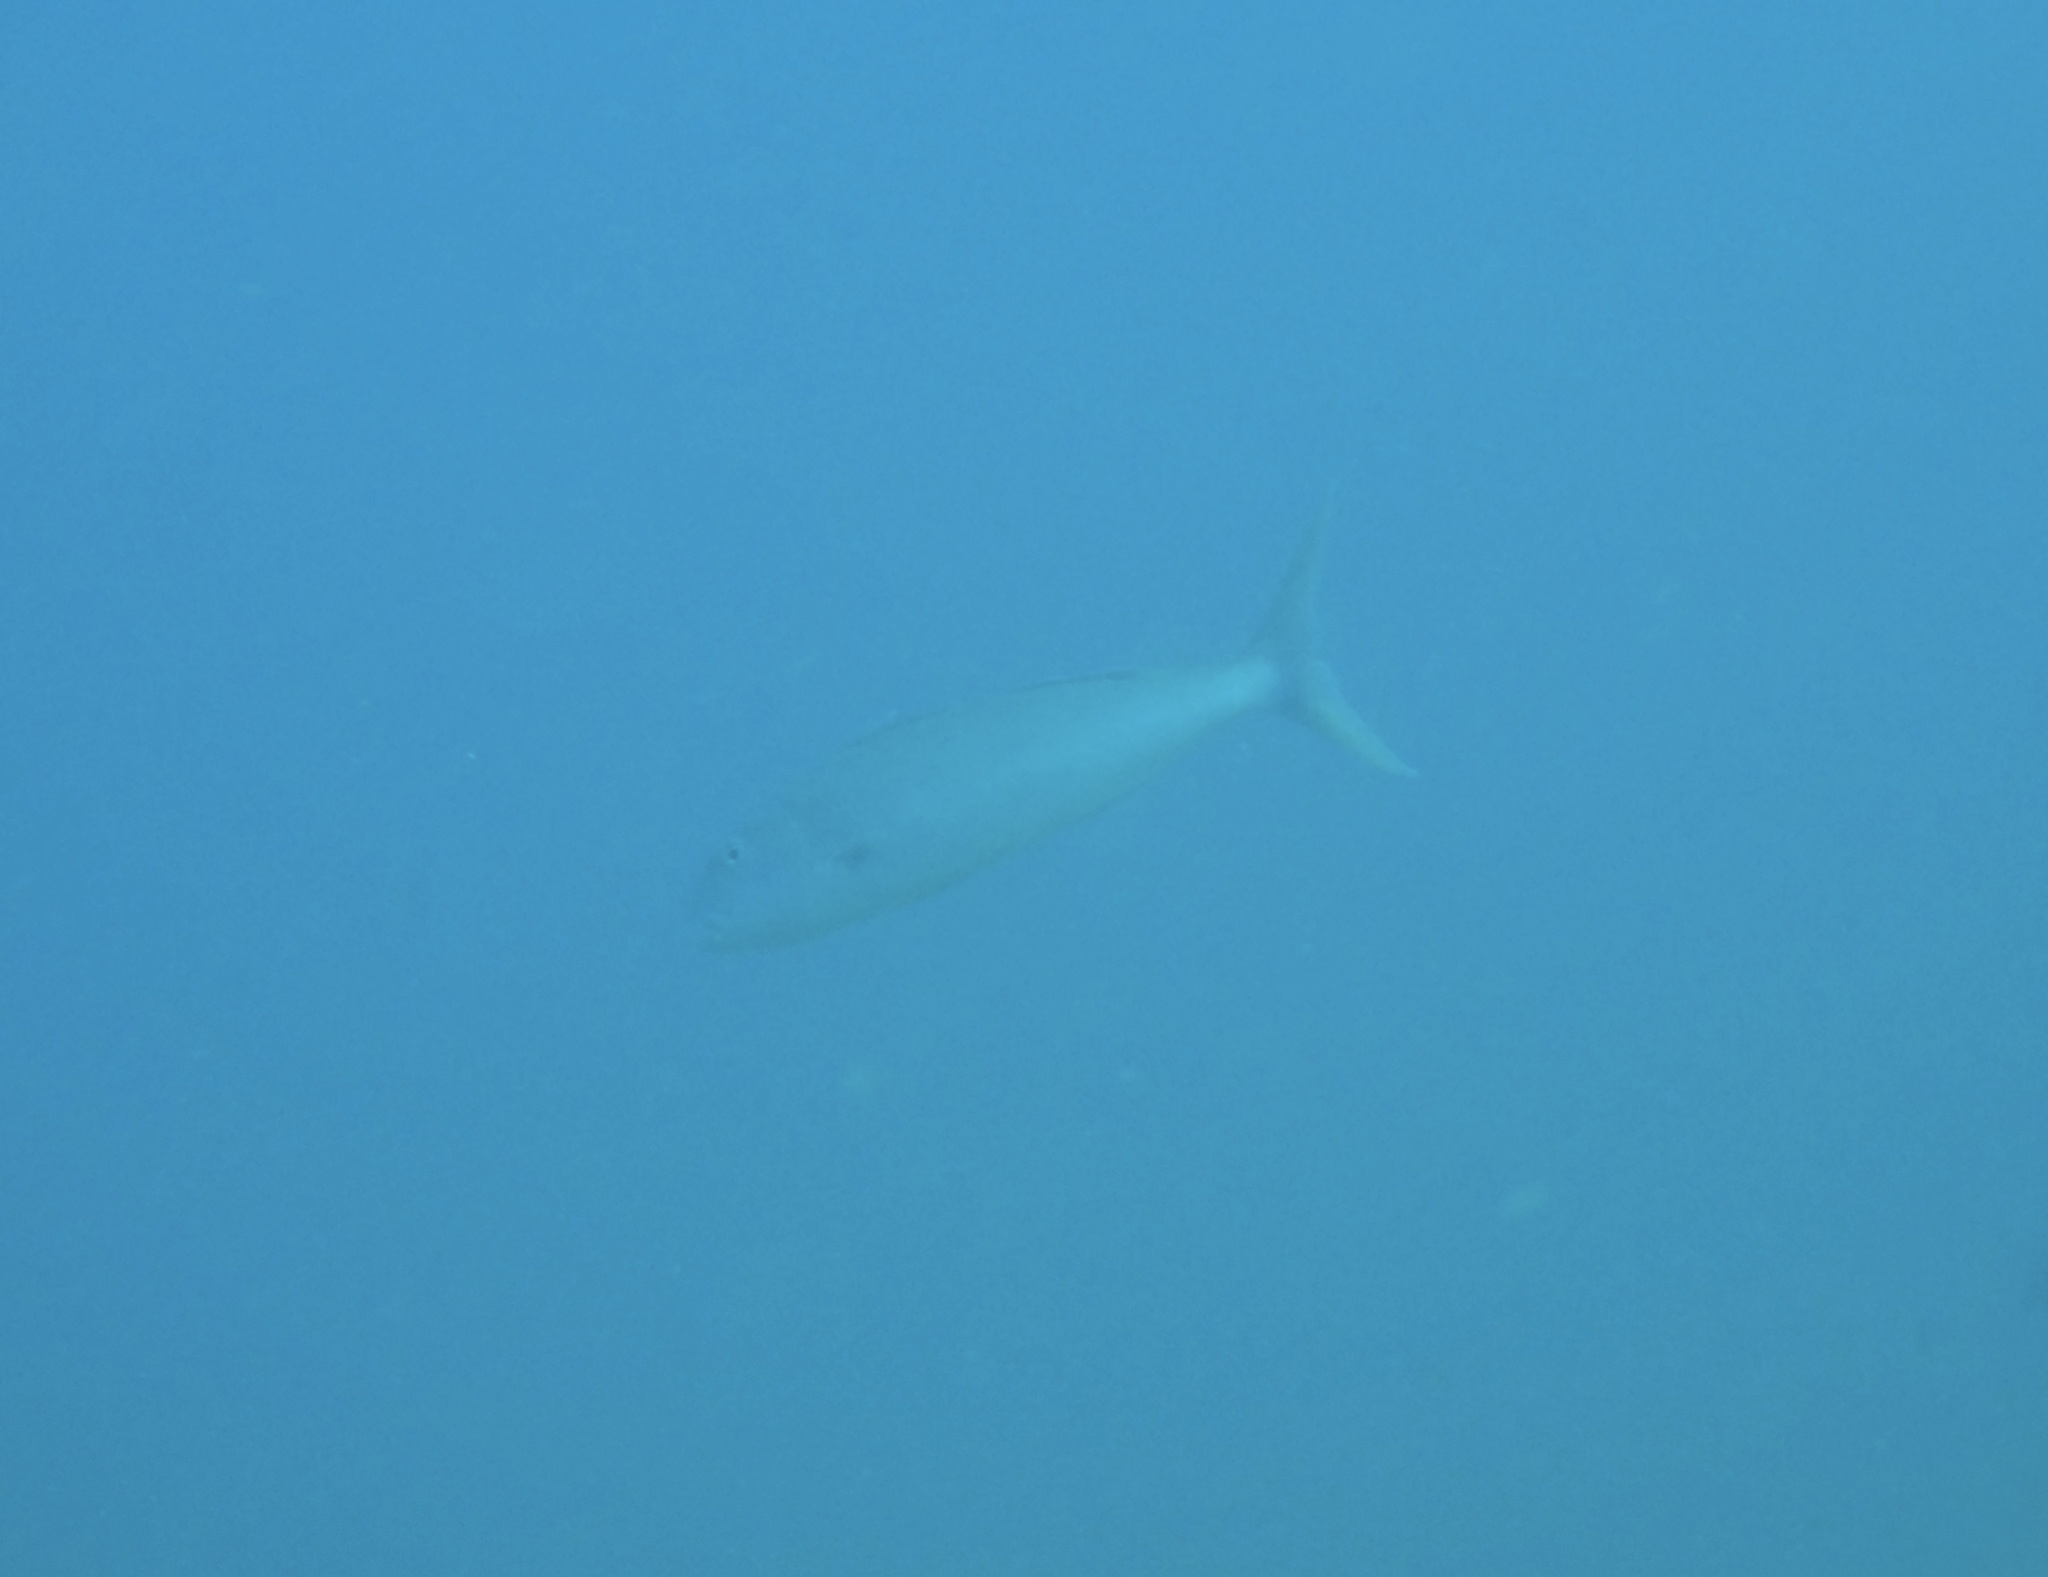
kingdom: Animalia
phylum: Chordata
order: Perciformes
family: Lutjanidae
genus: Aprion
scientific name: Aprion virescens
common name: Green jobfish
